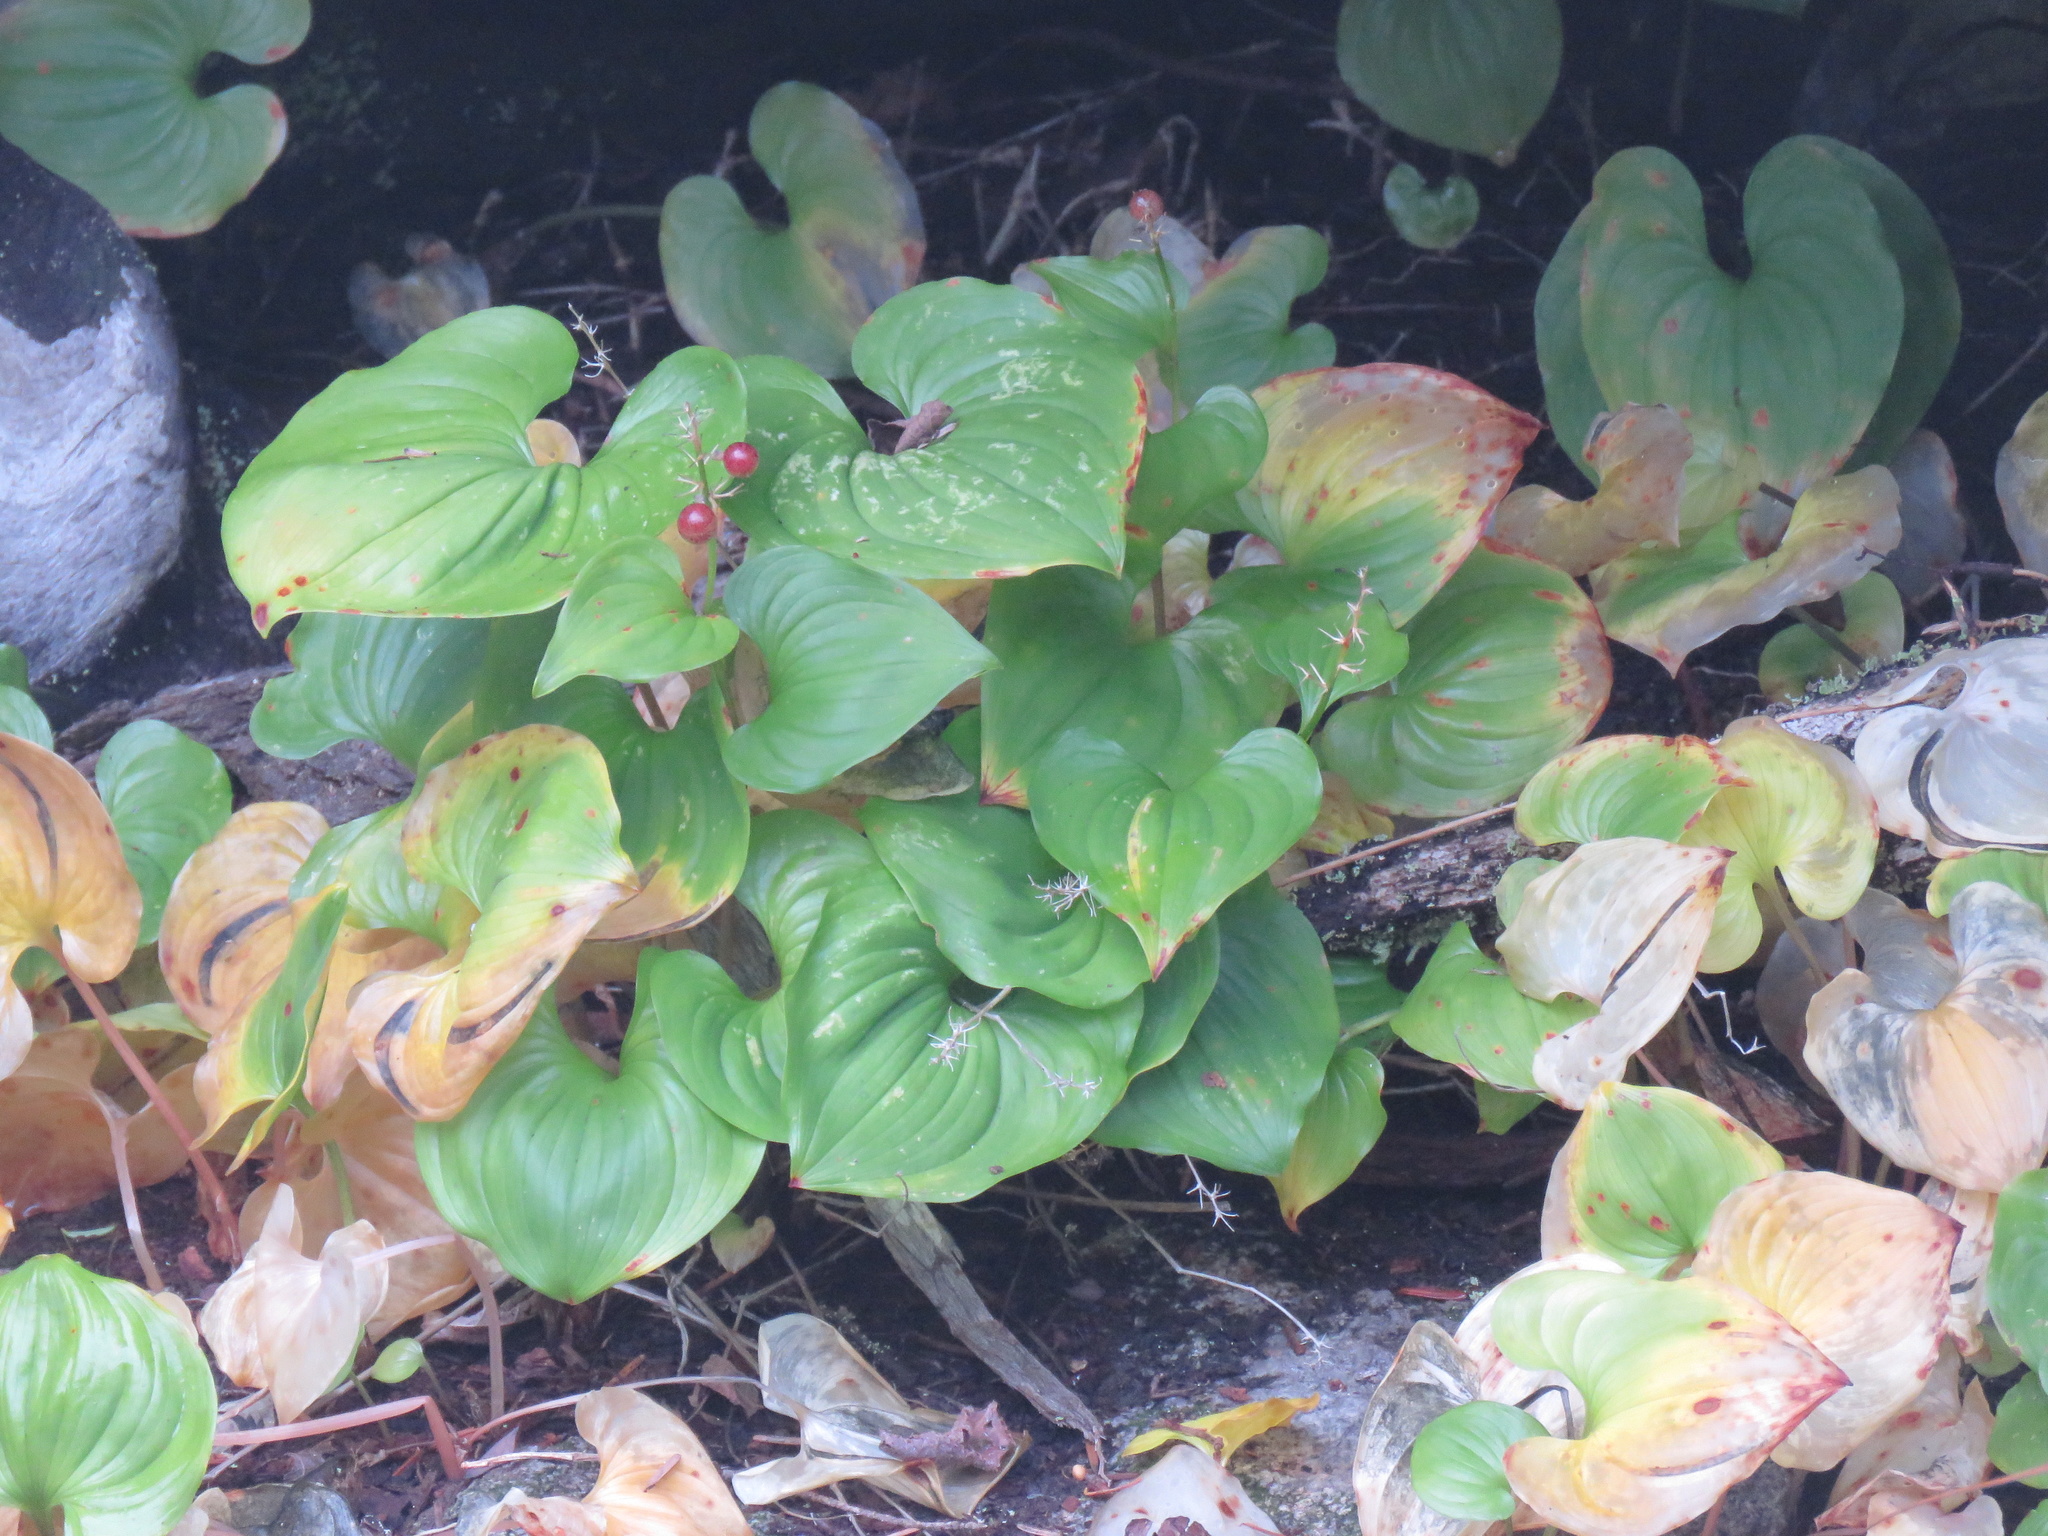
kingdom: Plantae
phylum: Tracheophyta
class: Liliopsida
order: Asparagales
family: Asparagaceae
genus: Maianthemum
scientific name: Maianthemum dilatatum
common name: False lily-of-the-valley
